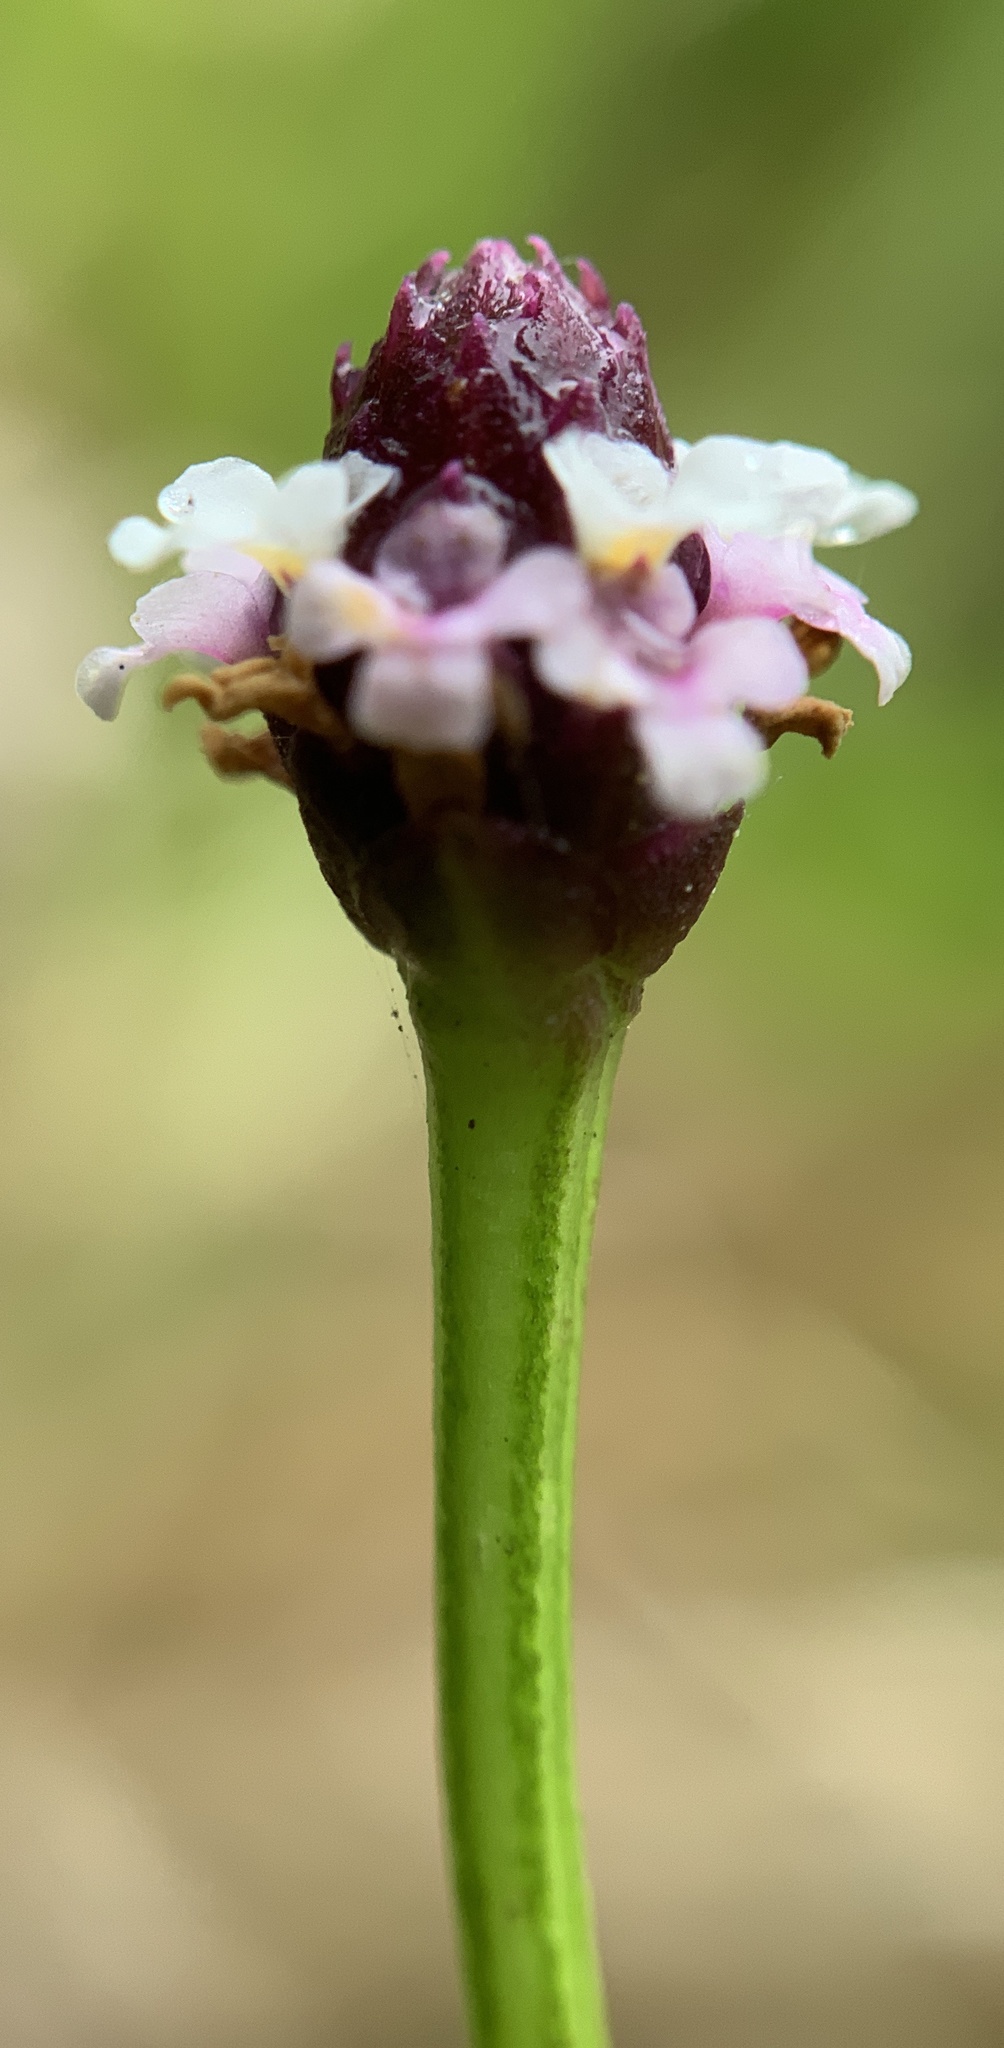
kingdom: Plantae
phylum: Tracheophyta
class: Magnoliopsida
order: Lamiales
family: Verbenaceae
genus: Phyla
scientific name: Phyla nodiflora
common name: Frogfruit
